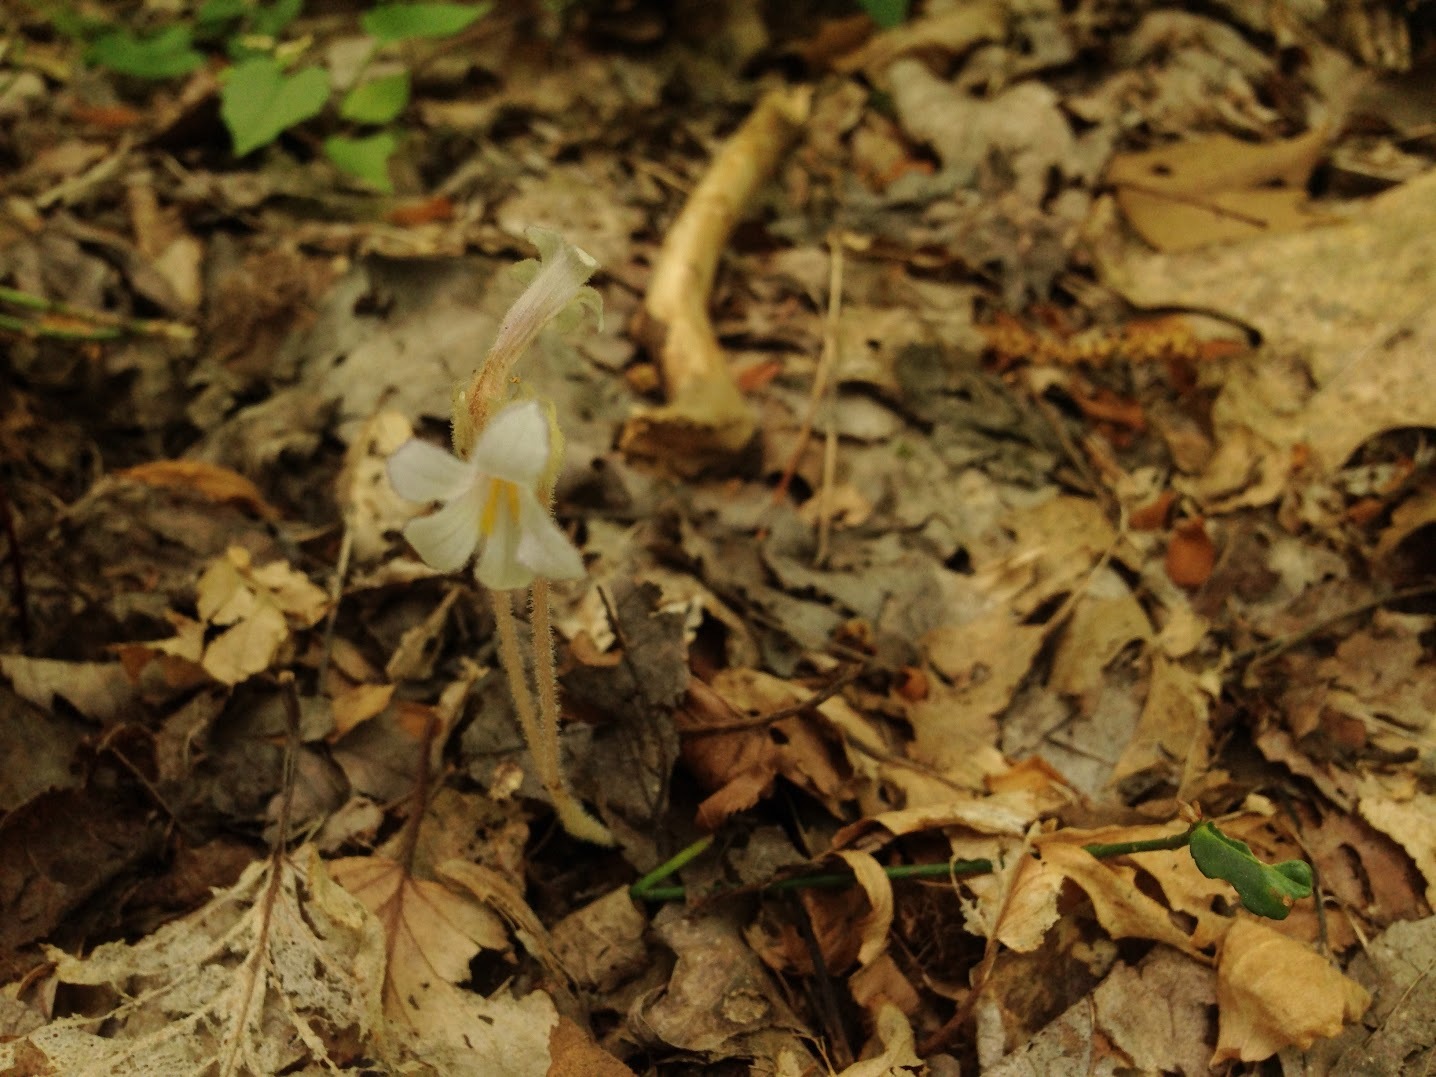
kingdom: Plantae
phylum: Tracheophyta
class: Magnoliopsida
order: Lamiales
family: Orobanchaceae
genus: Aphyllon
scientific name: Aphyllon uniflorum
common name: One-flowered broomrape
